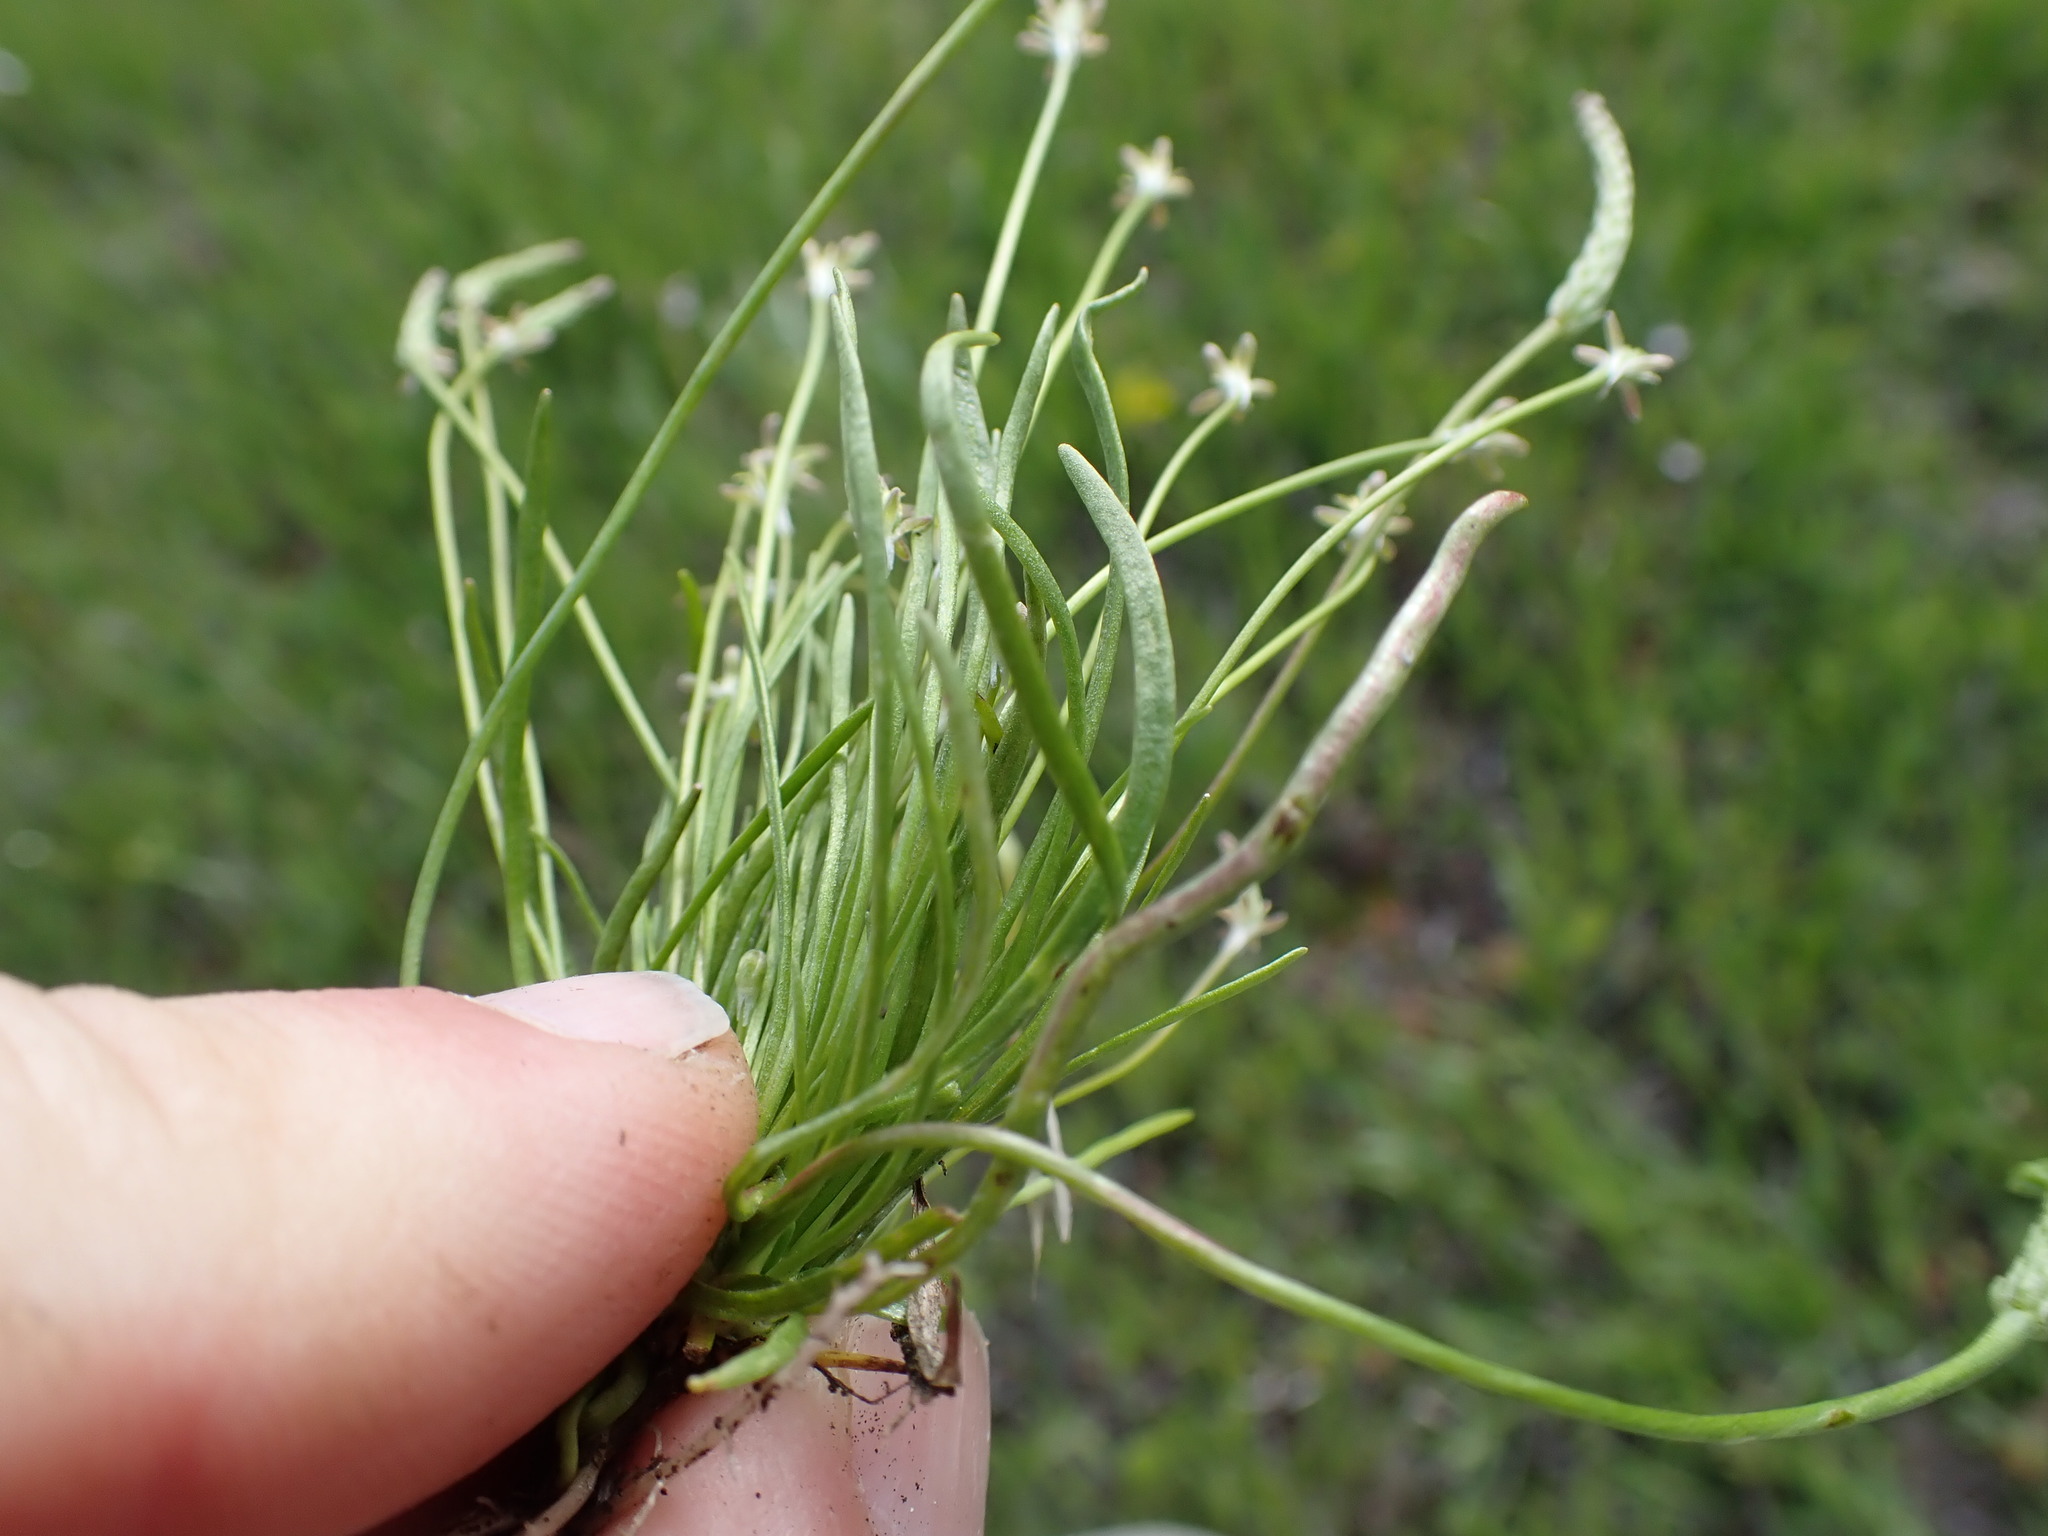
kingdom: Plantae
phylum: Tracheophyta
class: Magnoliopsida
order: Ranunculales
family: Ranunculaceae
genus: Myosurus
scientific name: Myosurus minimus
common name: Mousetail
